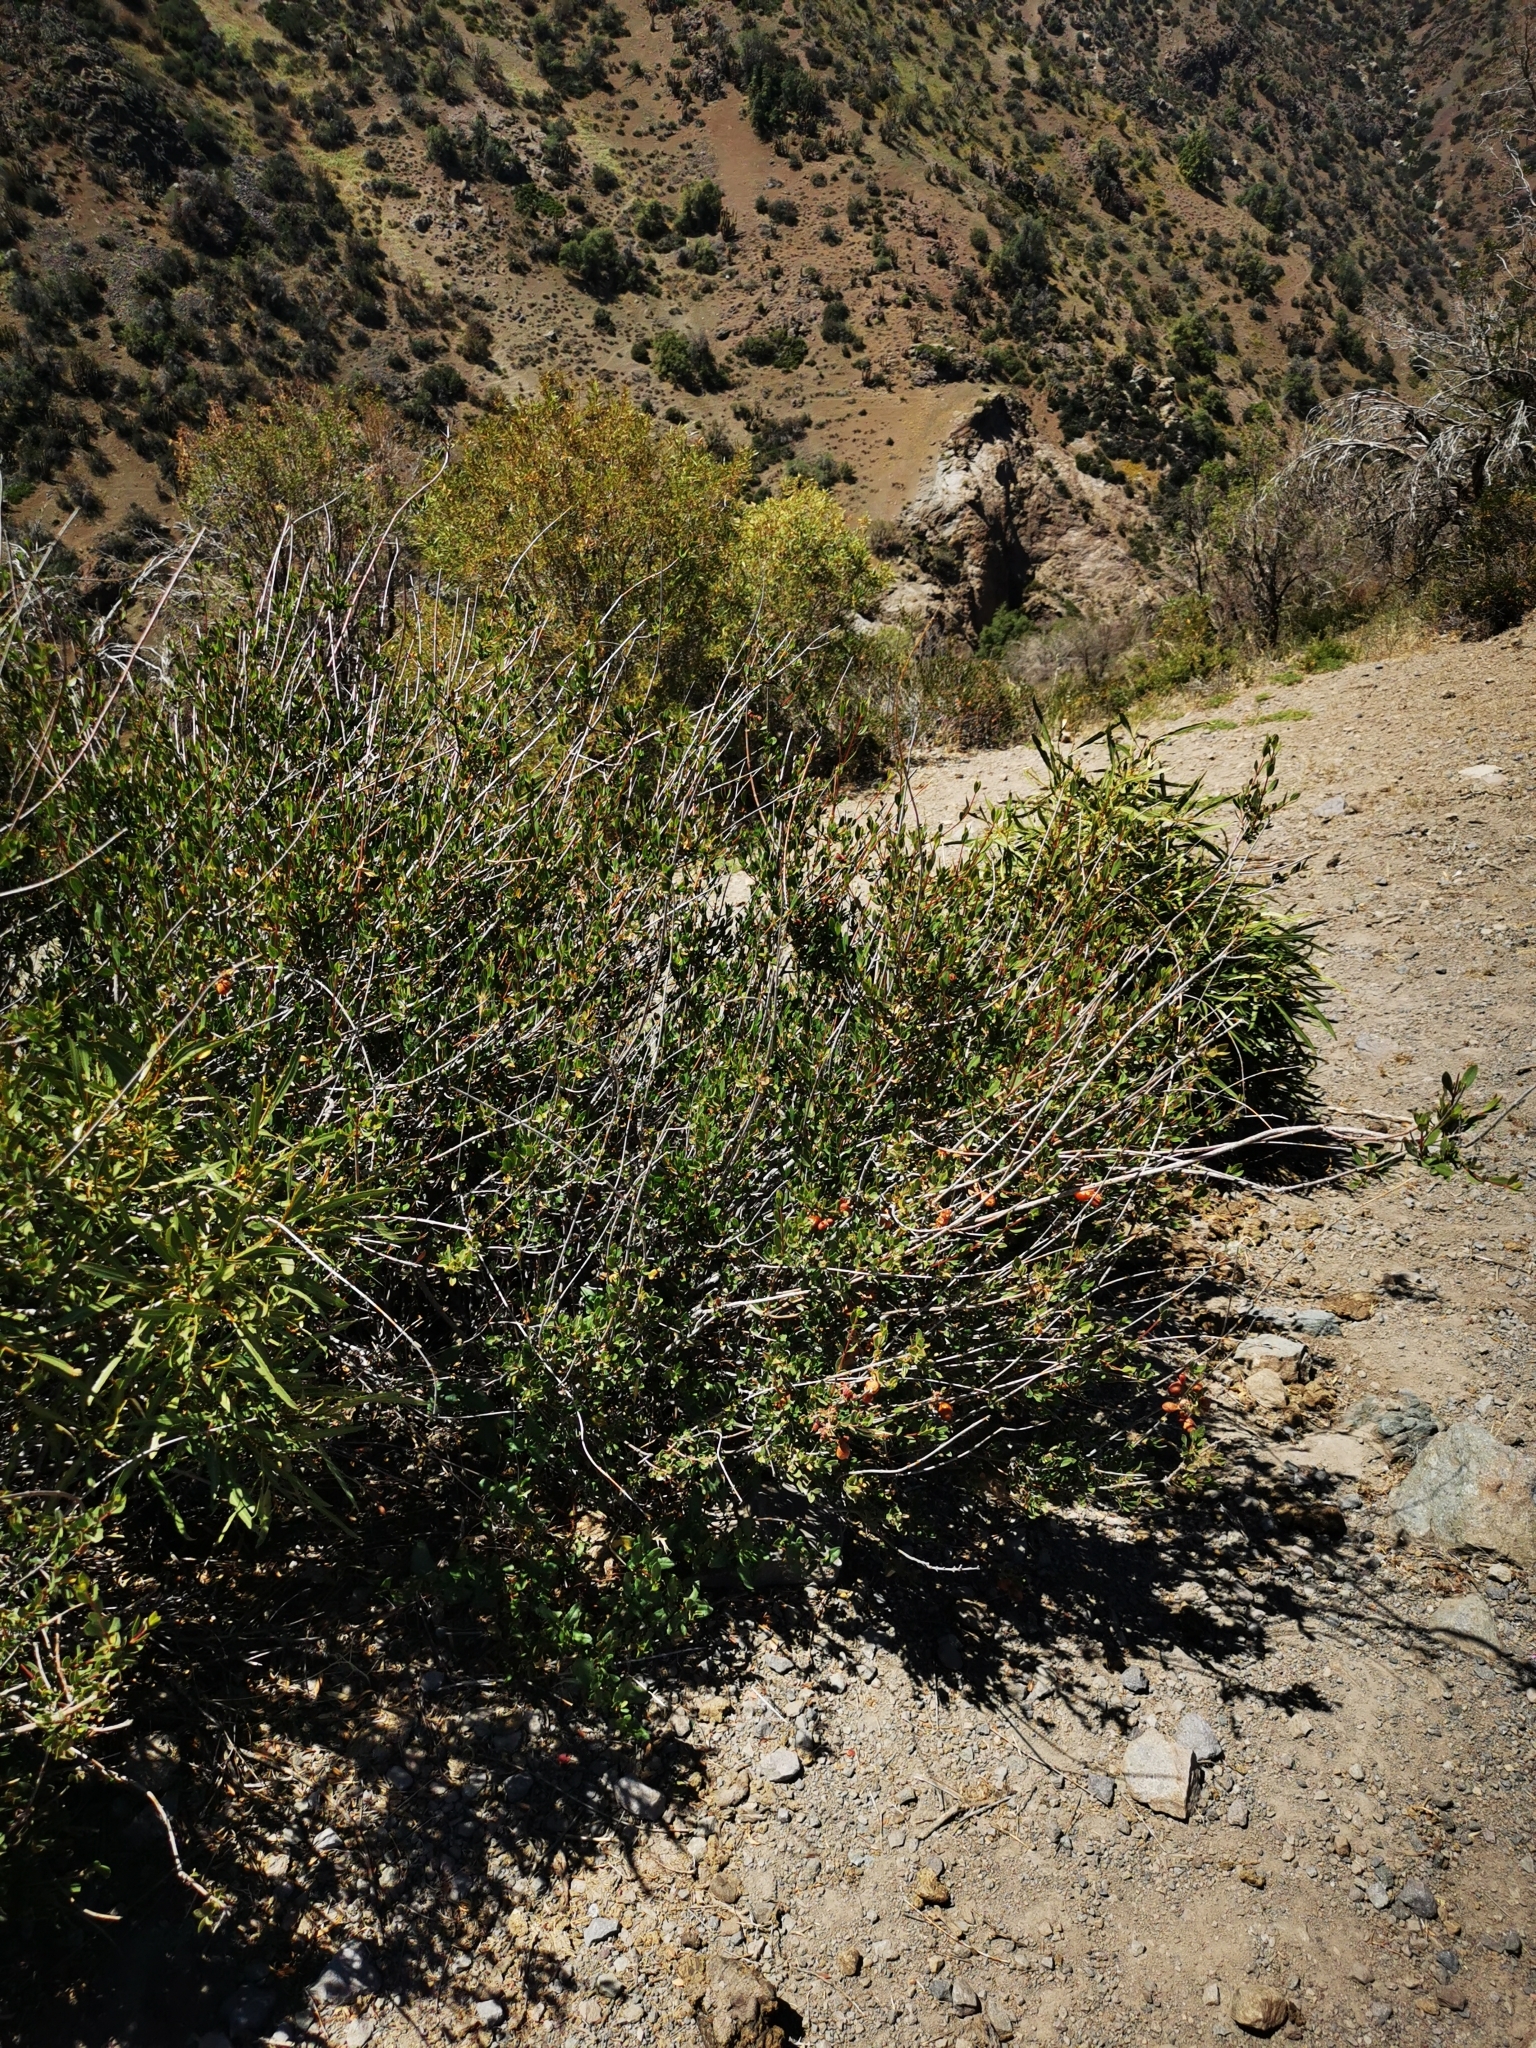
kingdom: Plantae
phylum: Tracheophyta
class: Magnoliopsida
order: Sapindales
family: Sapindaceae
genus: Guindilia
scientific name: Guindilia trinervis
